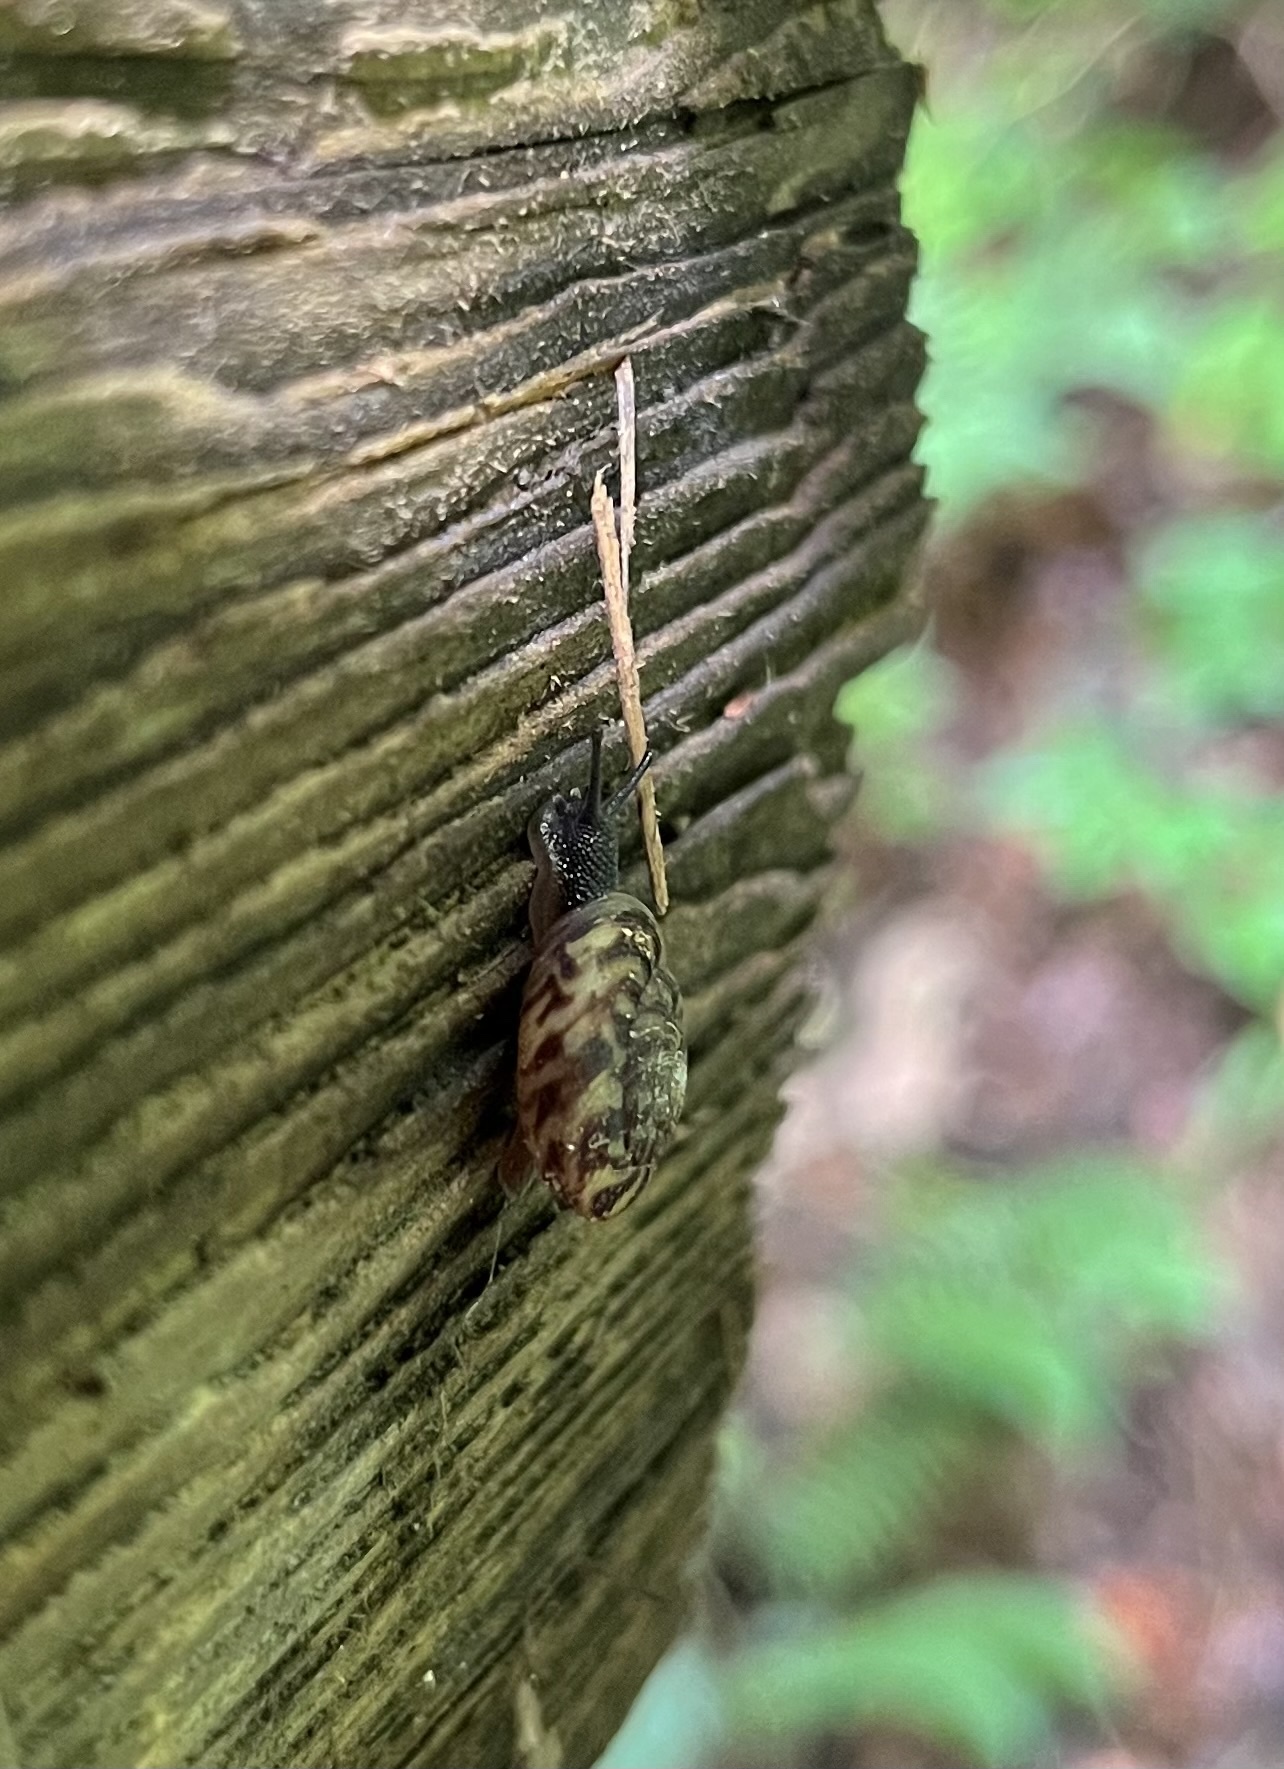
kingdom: Animalia
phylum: Mollusca
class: Gastropoda
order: Stylommatophora
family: Discidae
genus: Anguispira
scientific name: Anguispira alternata
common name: Flamed tigersnail
